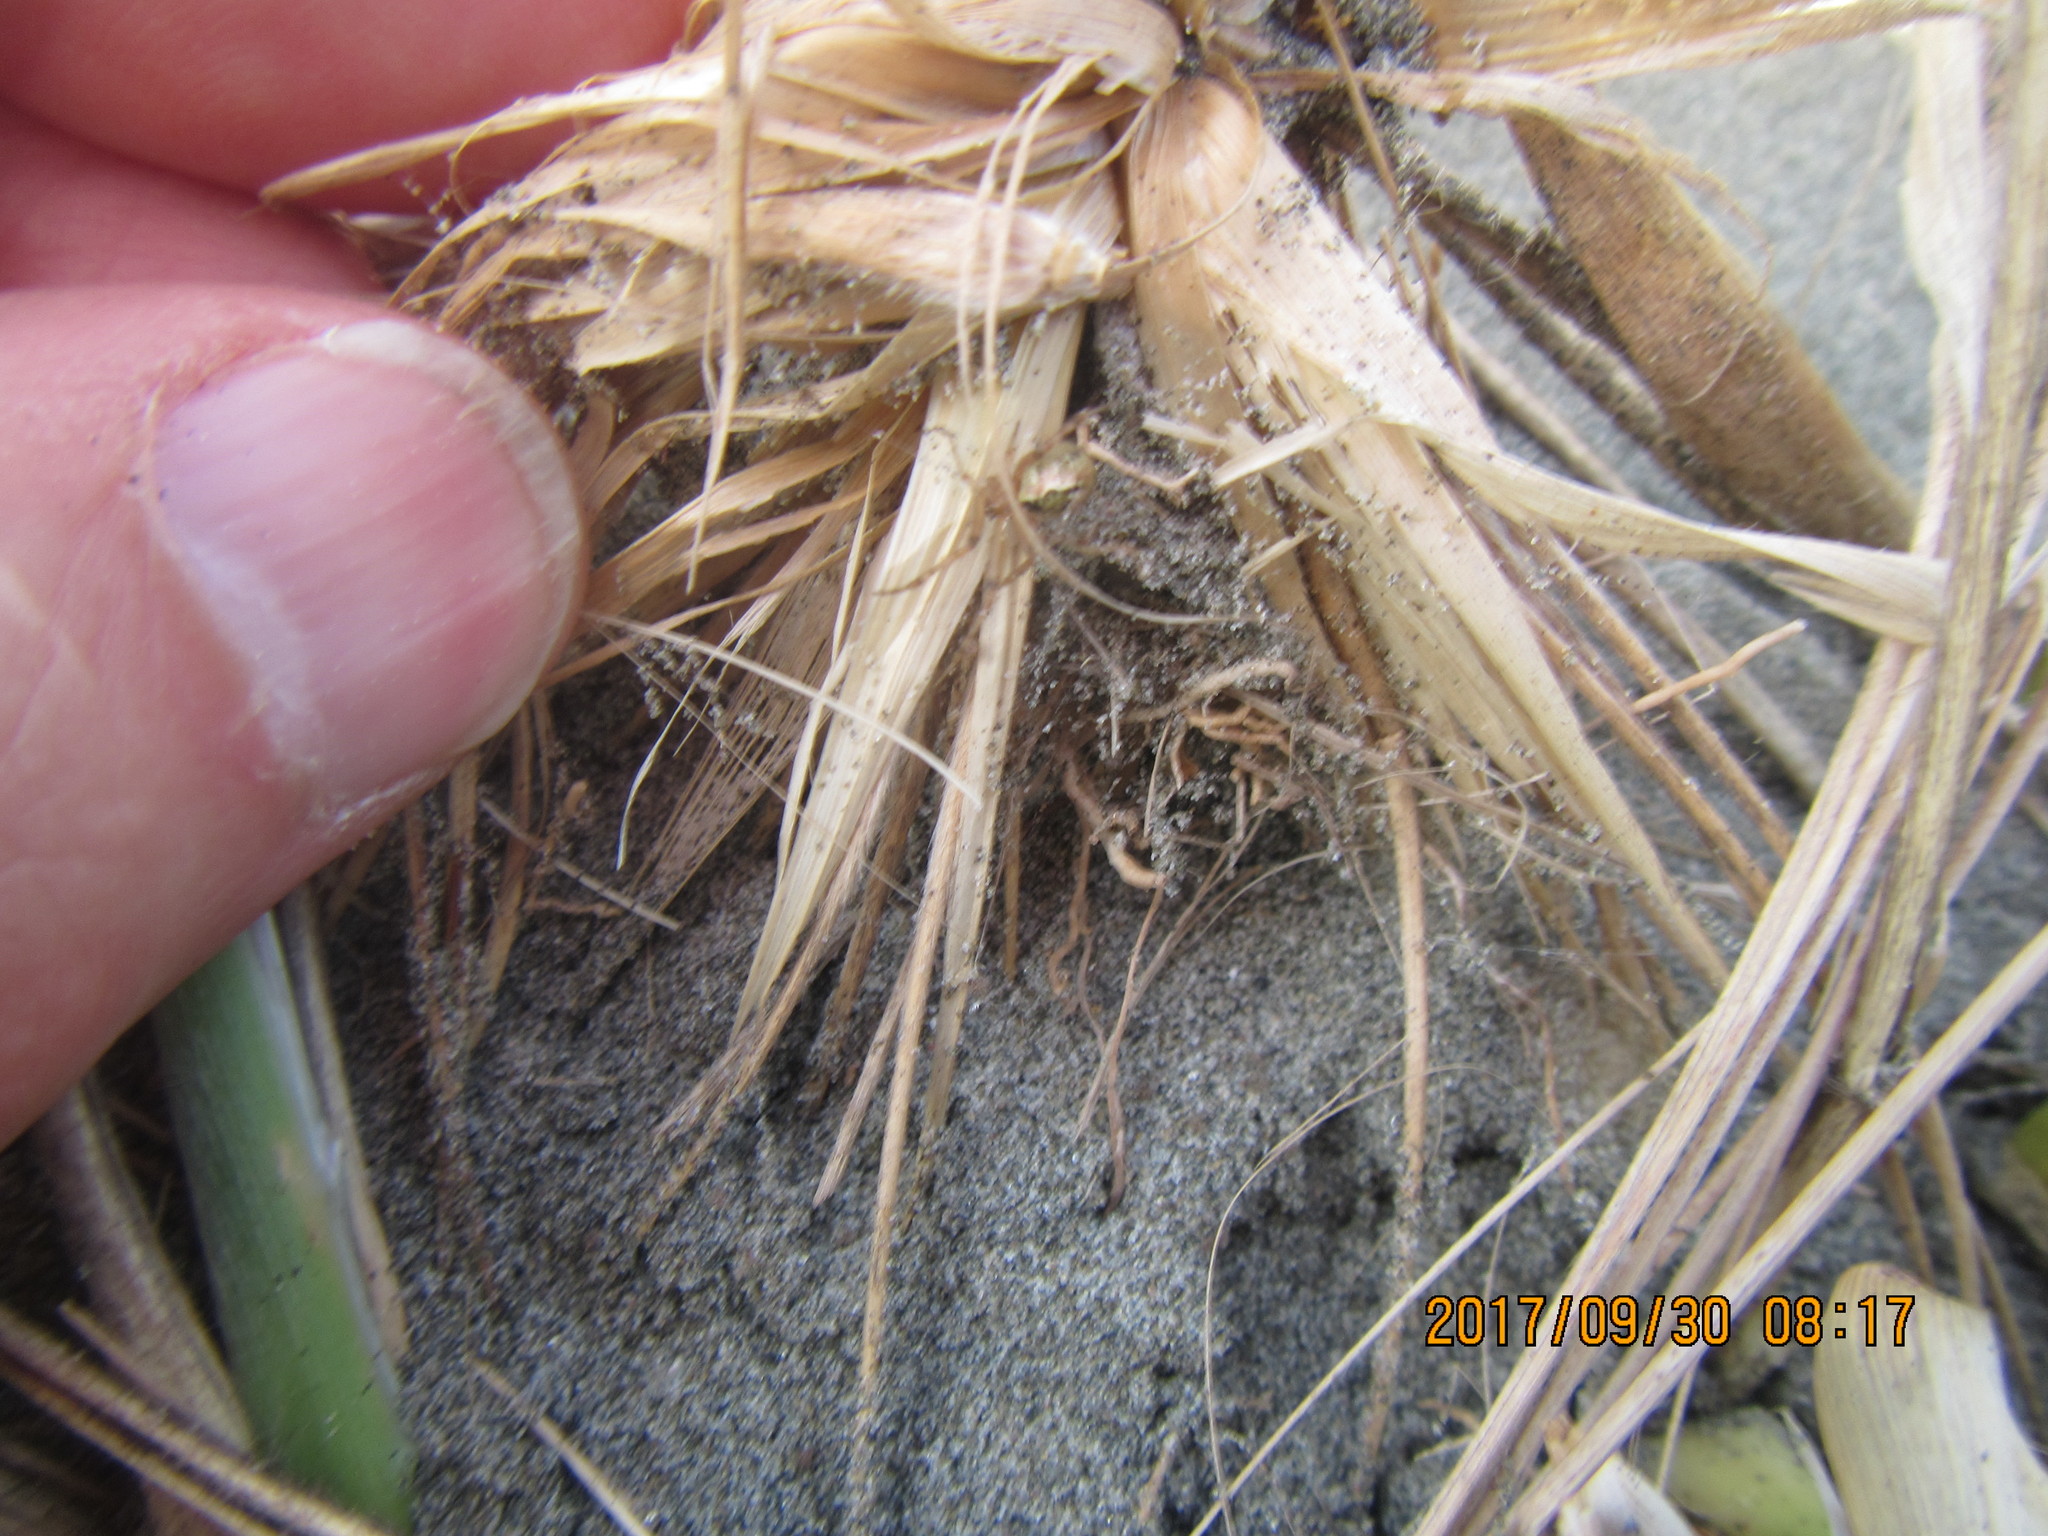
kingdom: Animalia
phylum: Arthropoda
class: Arachnida
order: Araneae
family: Theridiidae
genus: Cryptachaea
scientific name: Cryptachaea veruculata
